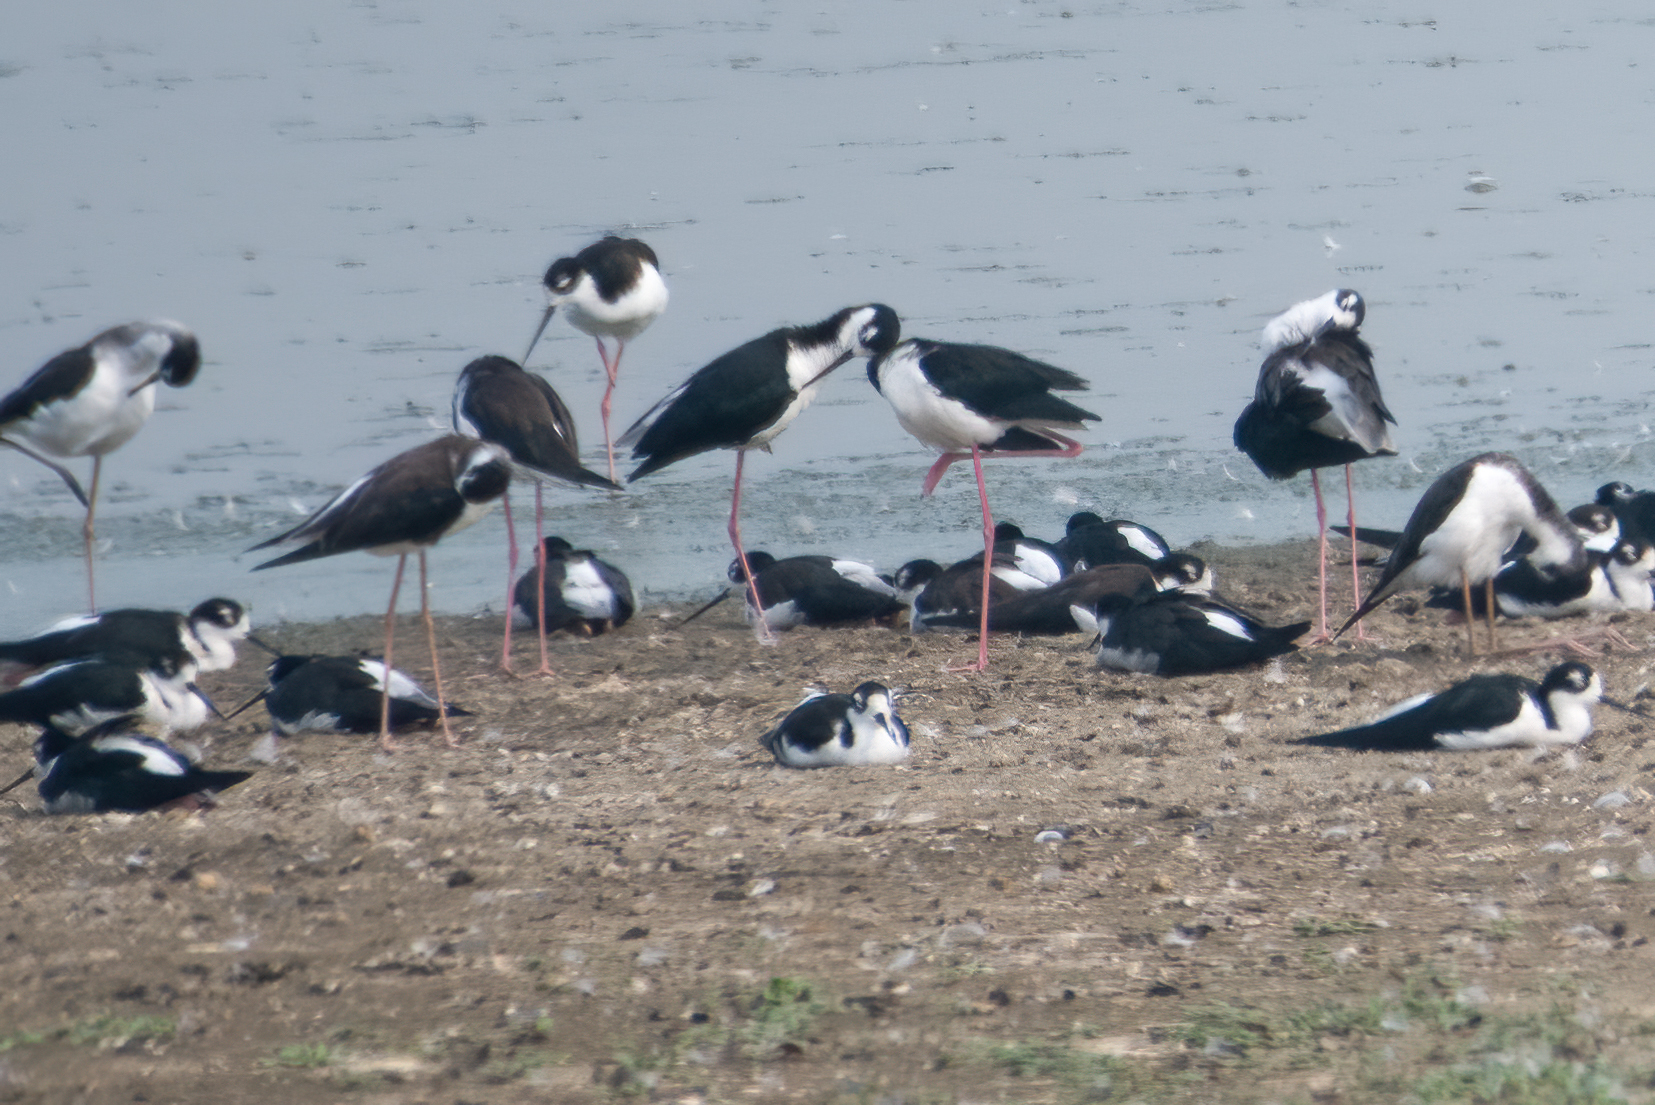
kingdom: Animalia
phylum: Chordata
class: Aves
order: Charadriiformes
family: Recurvirostridae
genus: Himantopus
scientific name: Himantopus mexicanus
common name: Black-necked stilt
